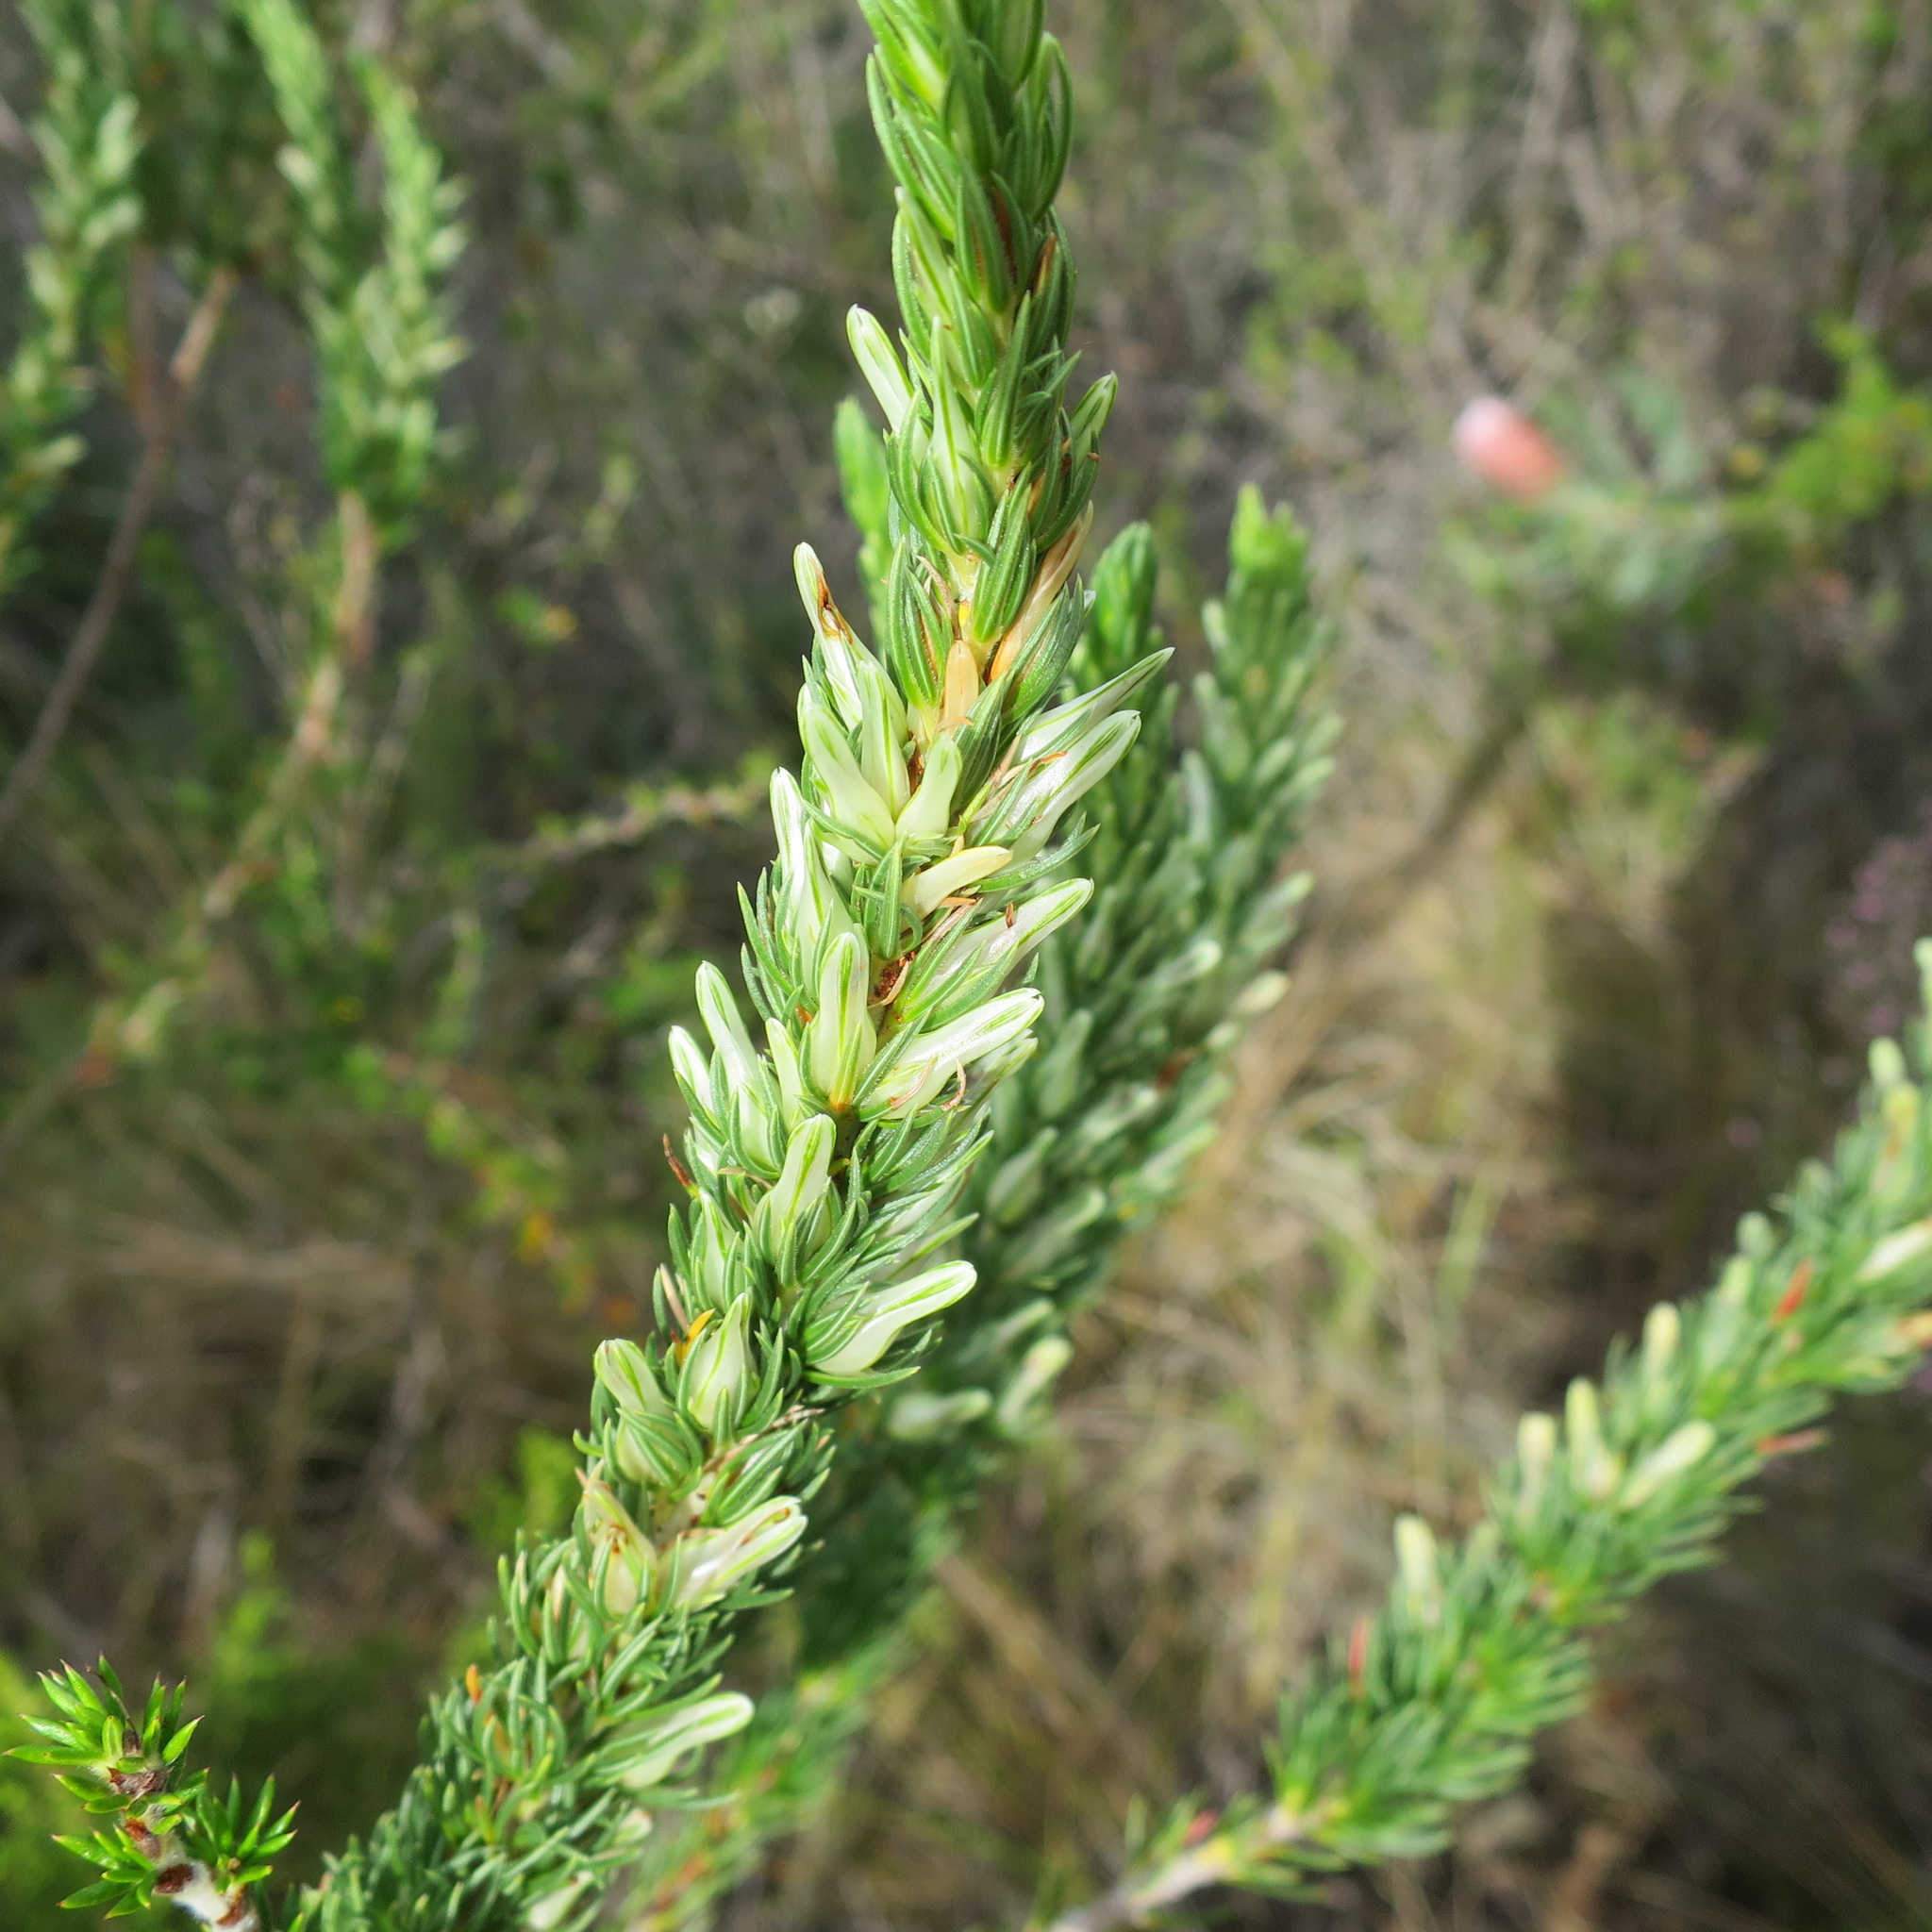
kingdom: Plantae
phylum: Tracheophyta
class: Magnoliopsida
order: Ericales
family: Ericaceae
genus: Erica
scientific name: Erica nabea
